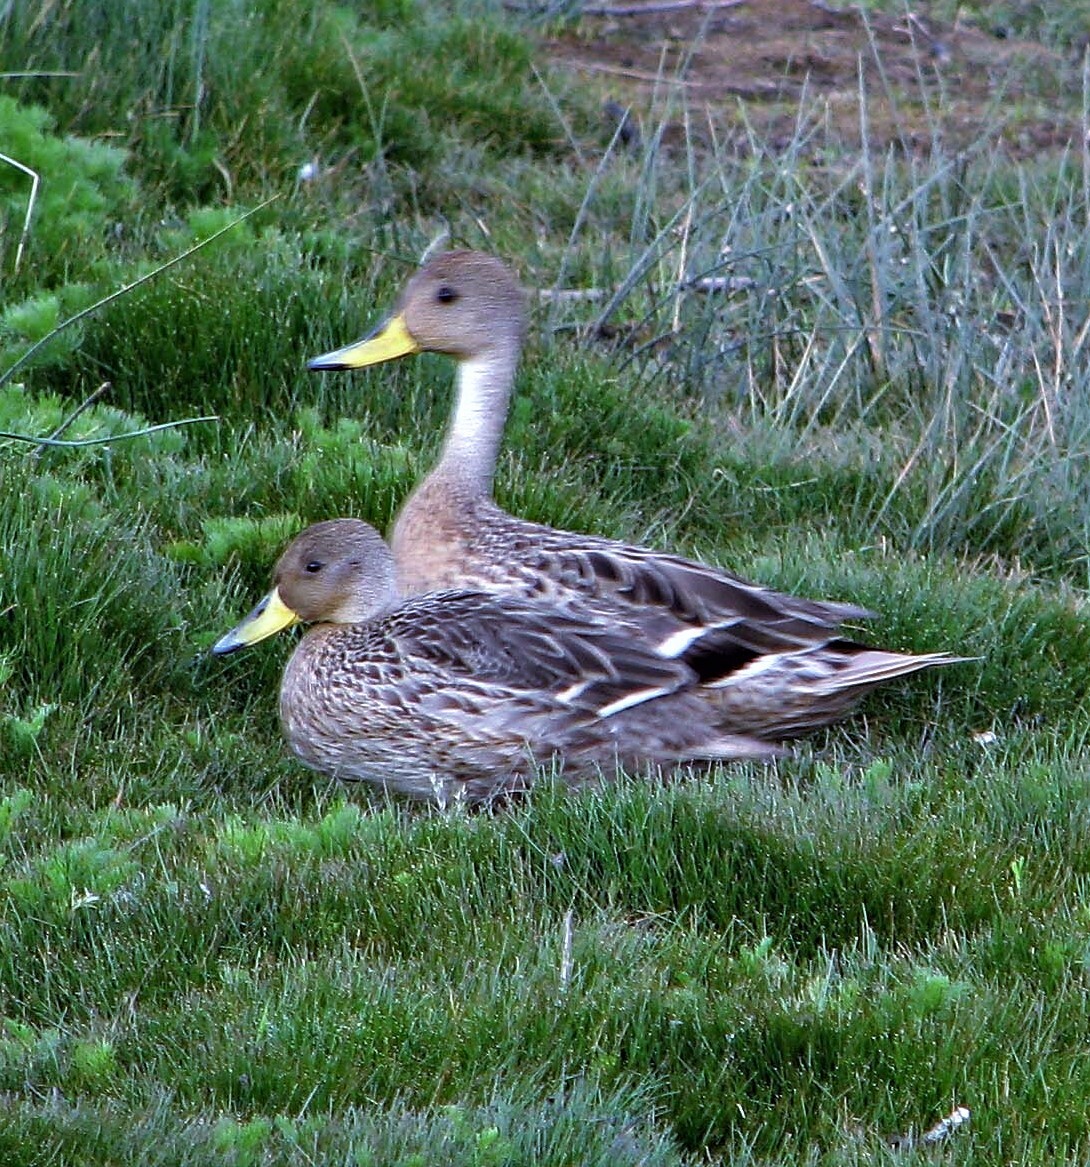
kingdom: Animalia
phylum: Chordata
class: Aves
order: Anseriformes
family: Anatidae
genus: Anas
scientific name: Anas georgica
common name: Yellow-billed pintail
